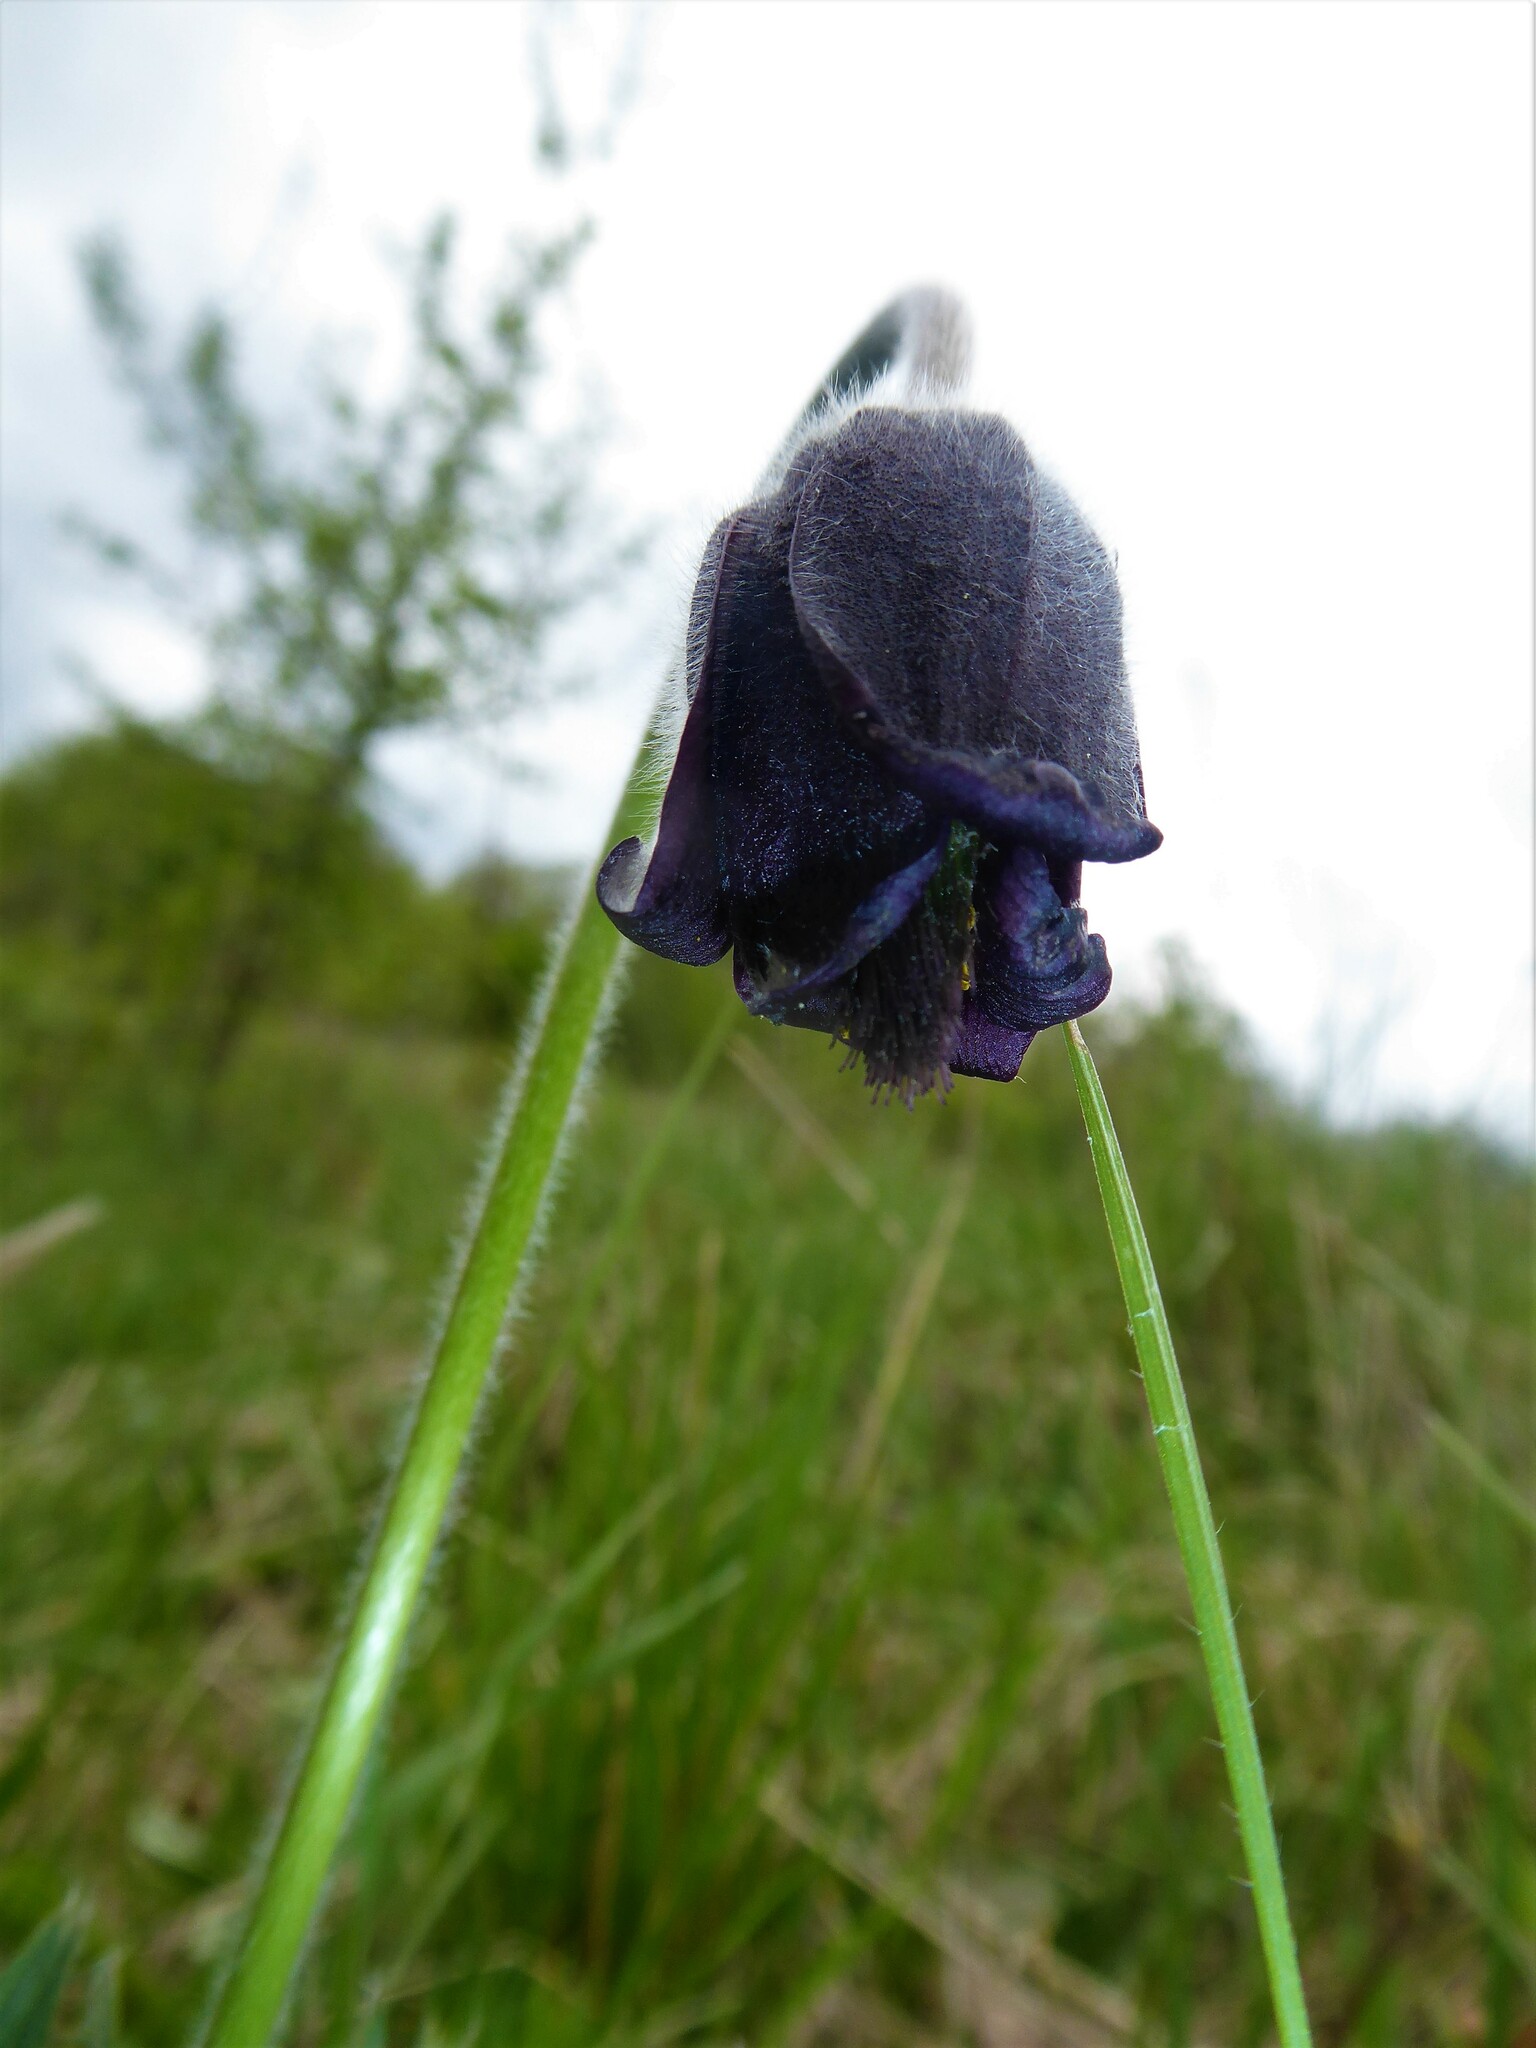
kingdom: Plantae
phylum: Tracheophyta
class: Magnoliopsida
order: Ranunculales
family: Ranunculaceae
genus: Pulsatilla
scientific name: Pulsatilla pratensis
